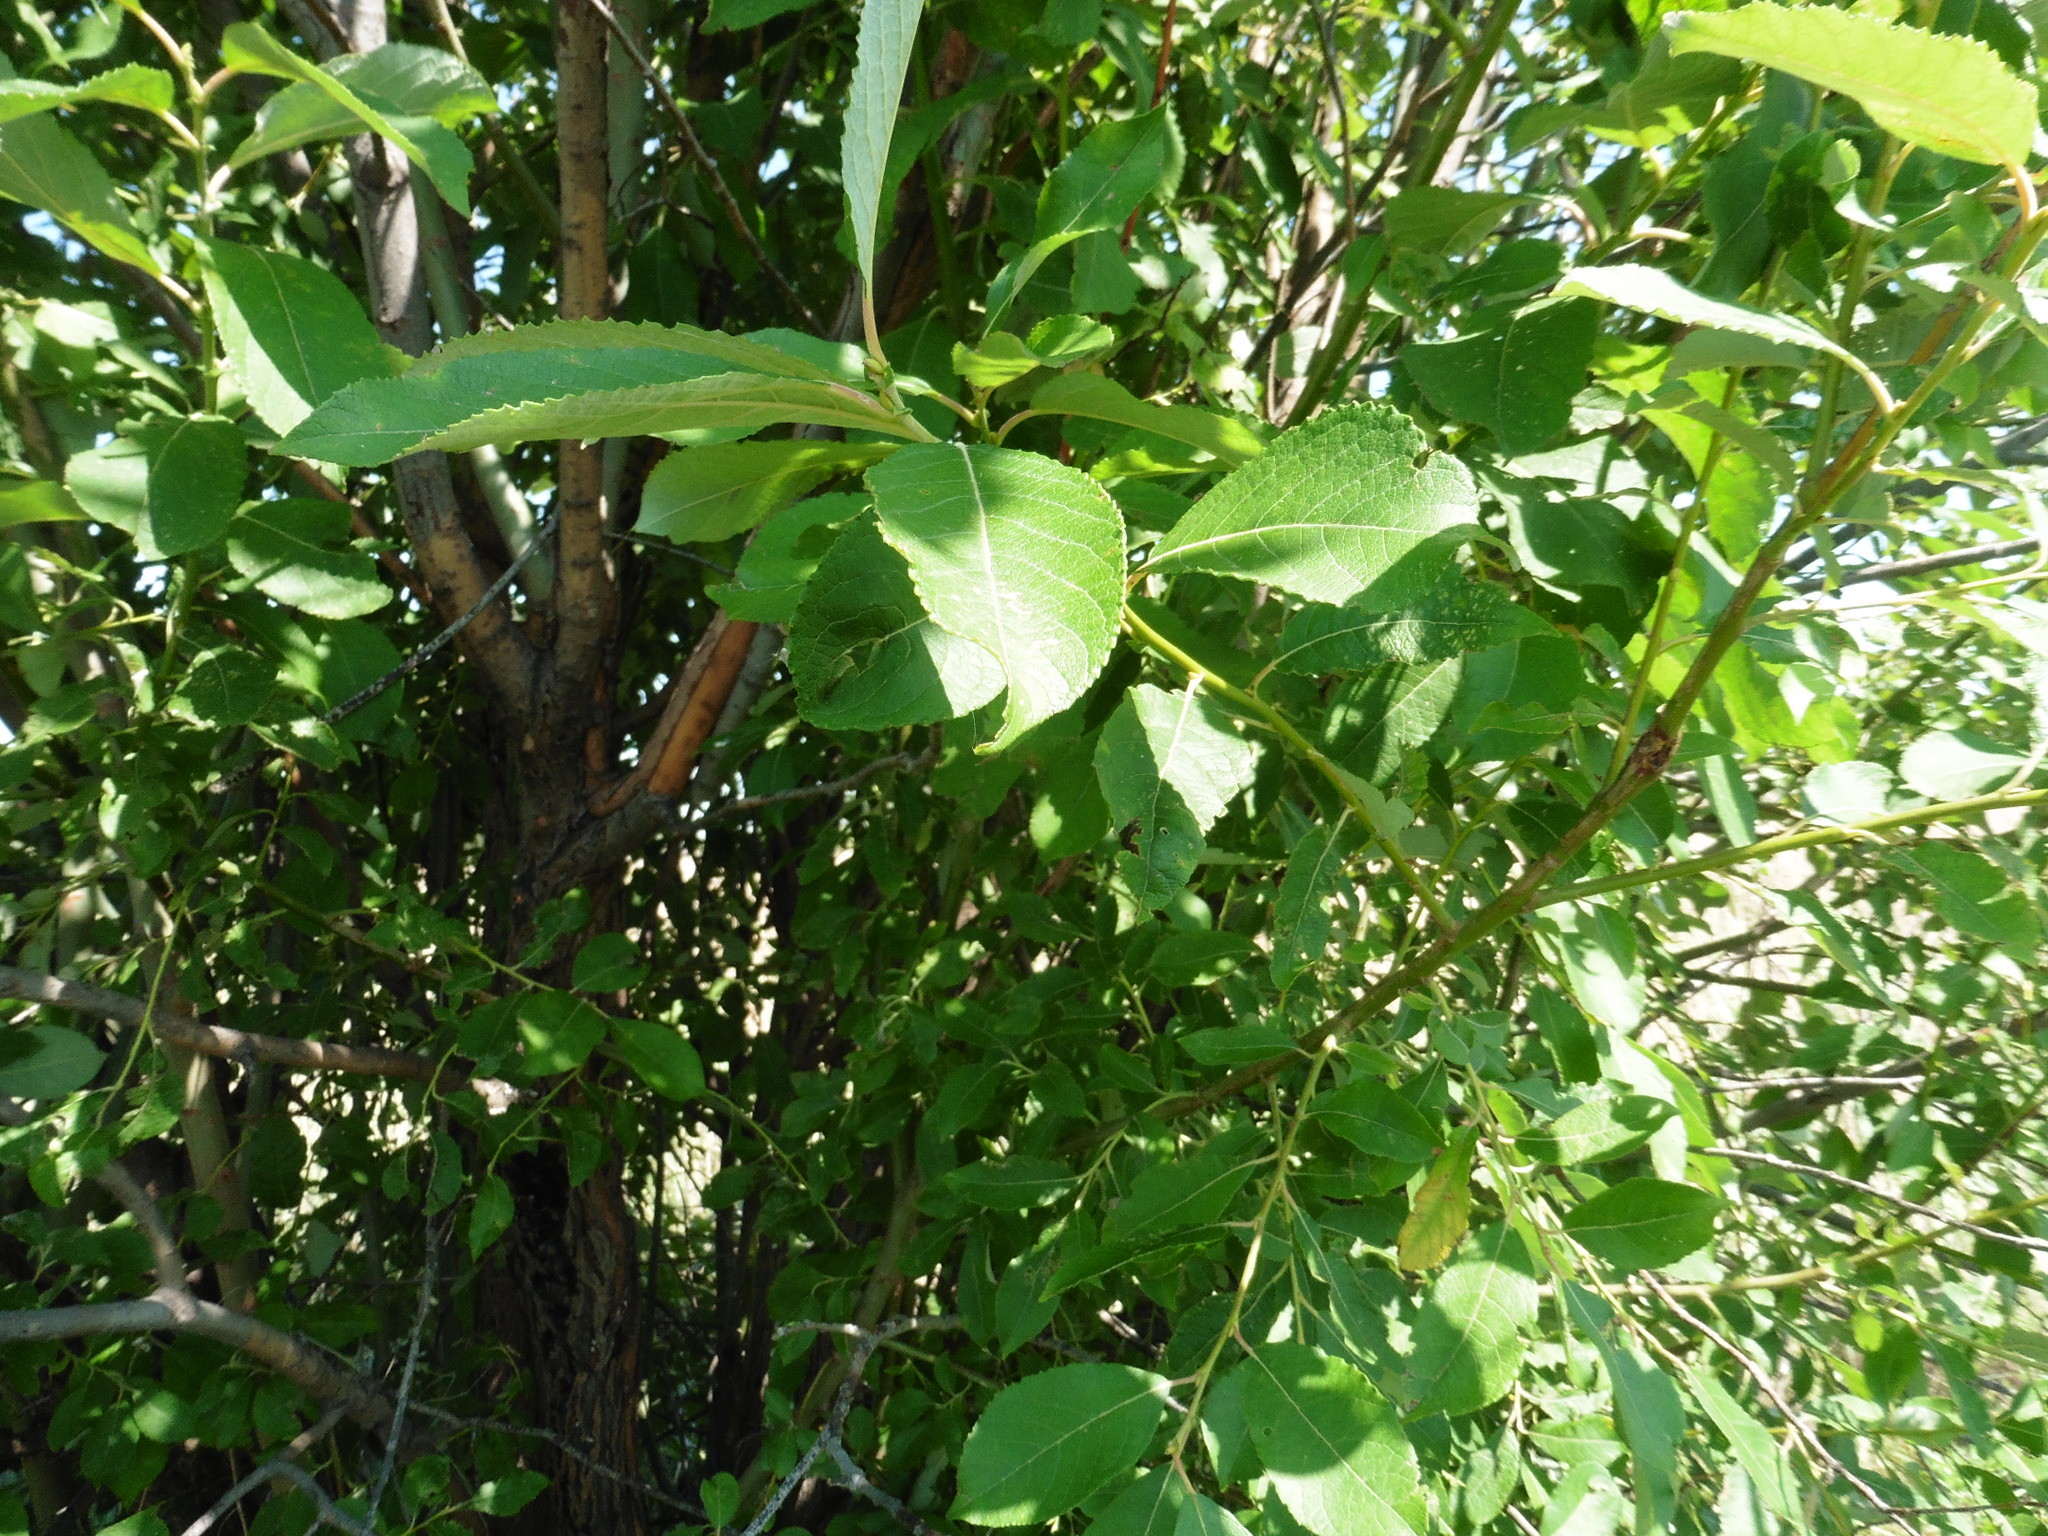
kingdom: Plantae
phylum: Tracheophyta
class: Magnoliopsida
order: Malpighiales
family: Salicaceae
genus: Salix
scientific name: Salix caprea
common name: Goat willow
